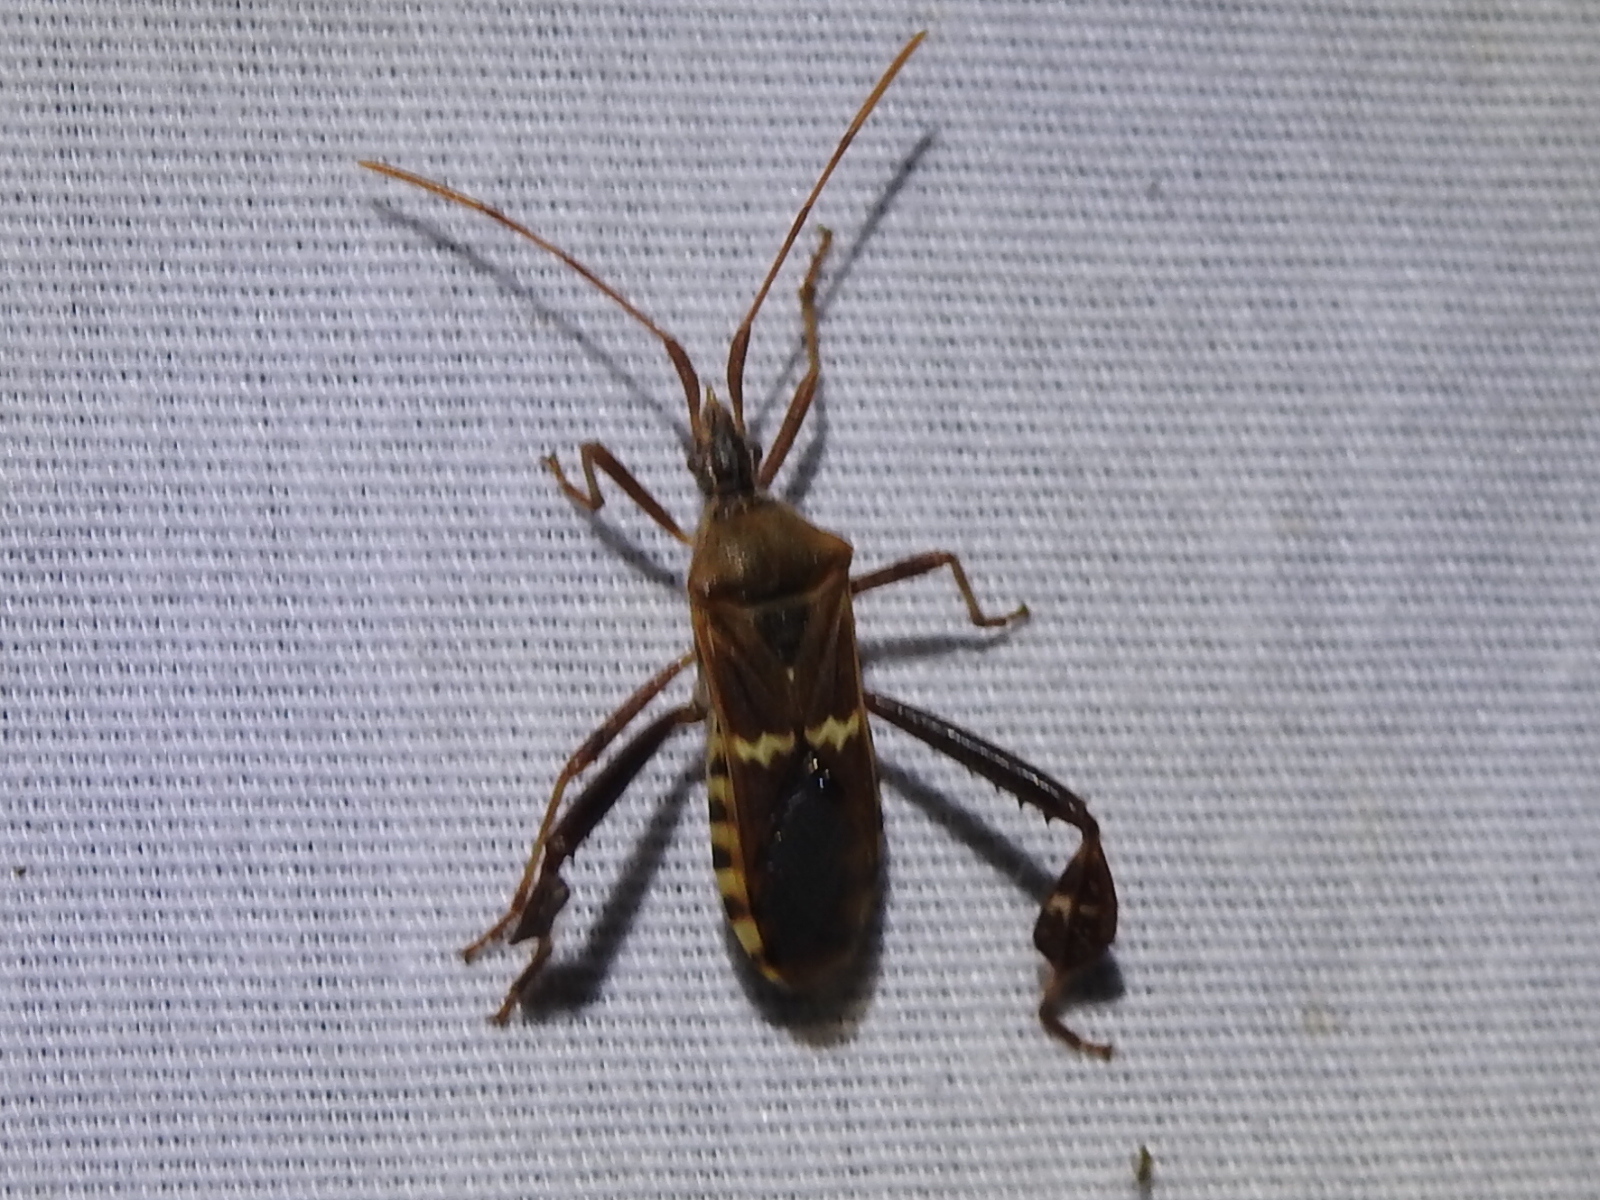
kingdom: Animalia
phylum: Arthropoda
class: Insecta
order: Hemiptera
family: Coreidae
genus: Leptoglossus
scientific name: Leptoglossus clypealis
